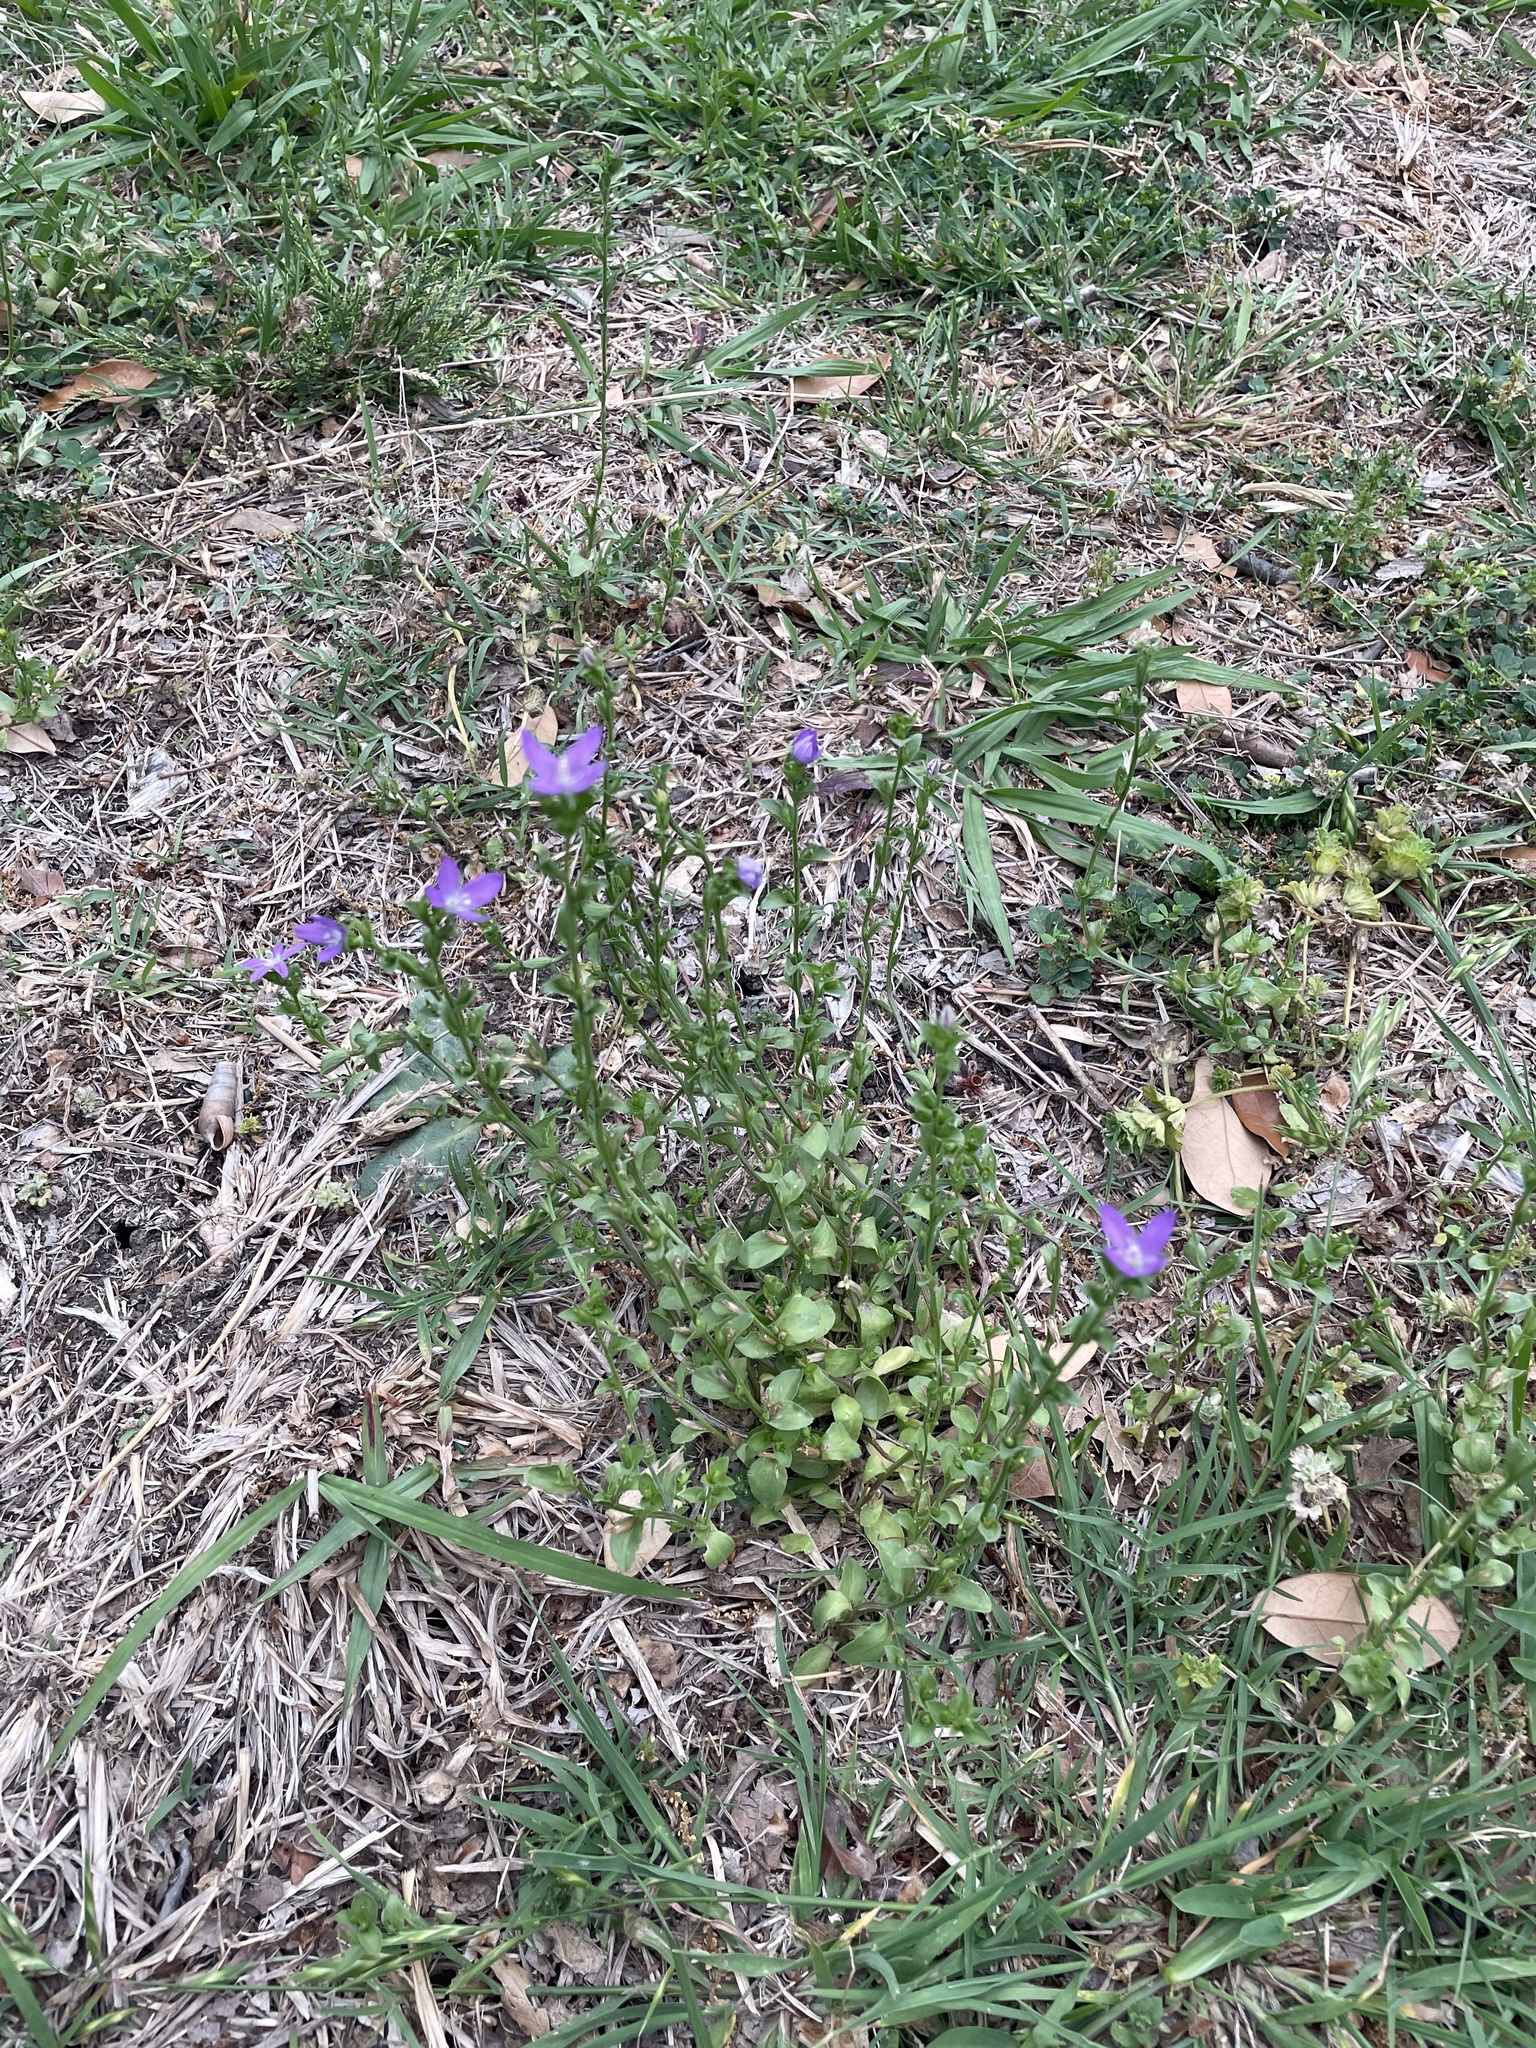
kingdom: Plantae
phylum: Tracheophyta
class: Magnoliopsida
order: Asterales
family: Campanulaceae
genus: Triodanis
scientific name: Triodanis biflora
